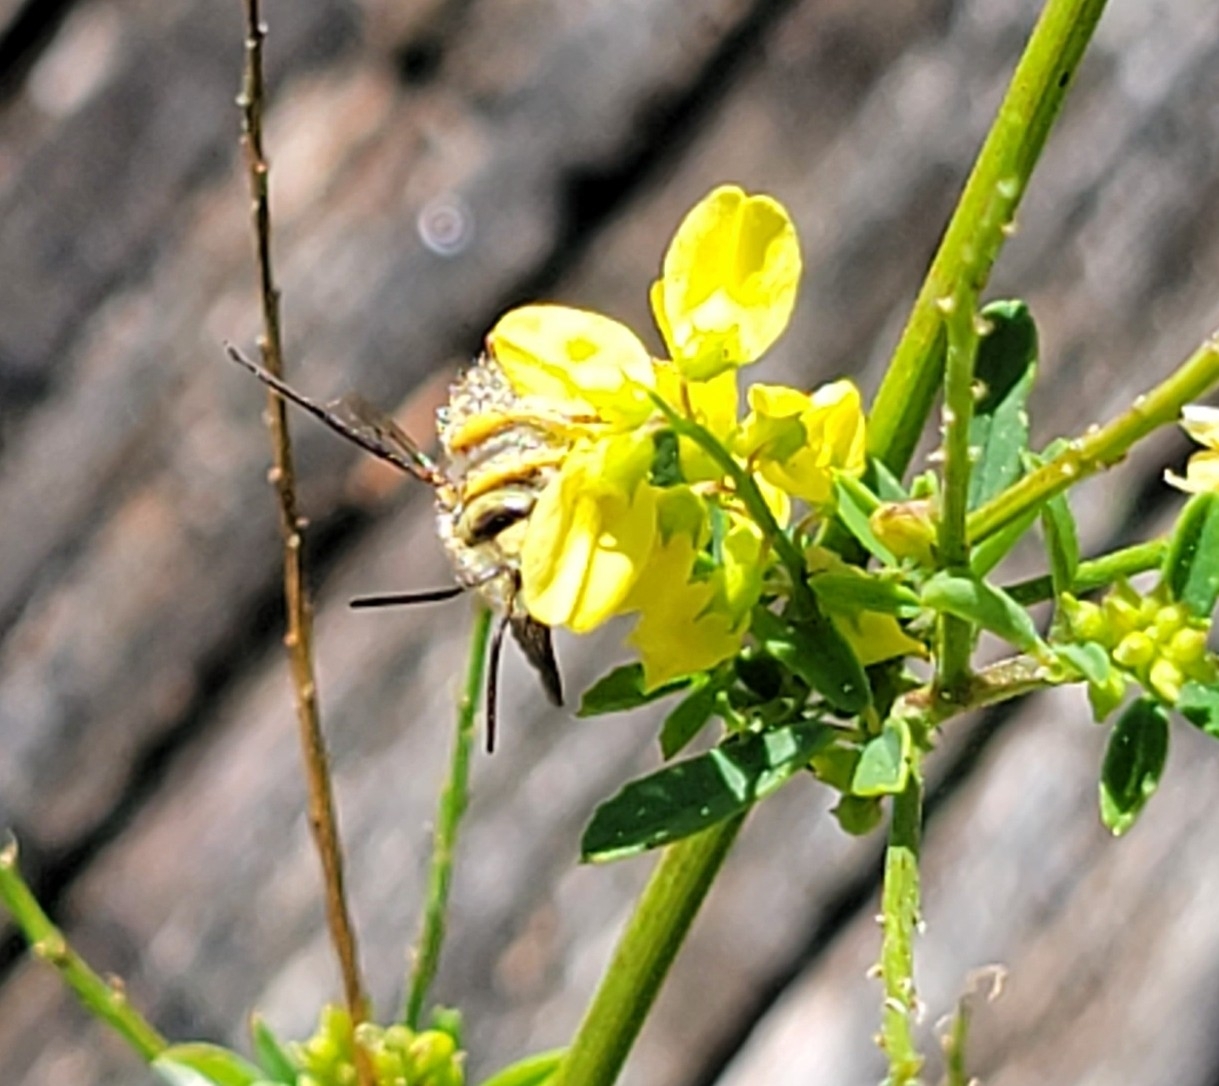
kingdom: Animalia
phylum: Arthropoda
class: Insecta
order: Hymenoptera
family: Megachilidae
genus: Anthidium
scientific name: Anthidium oblongatum
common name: Oblong wool carder bee
